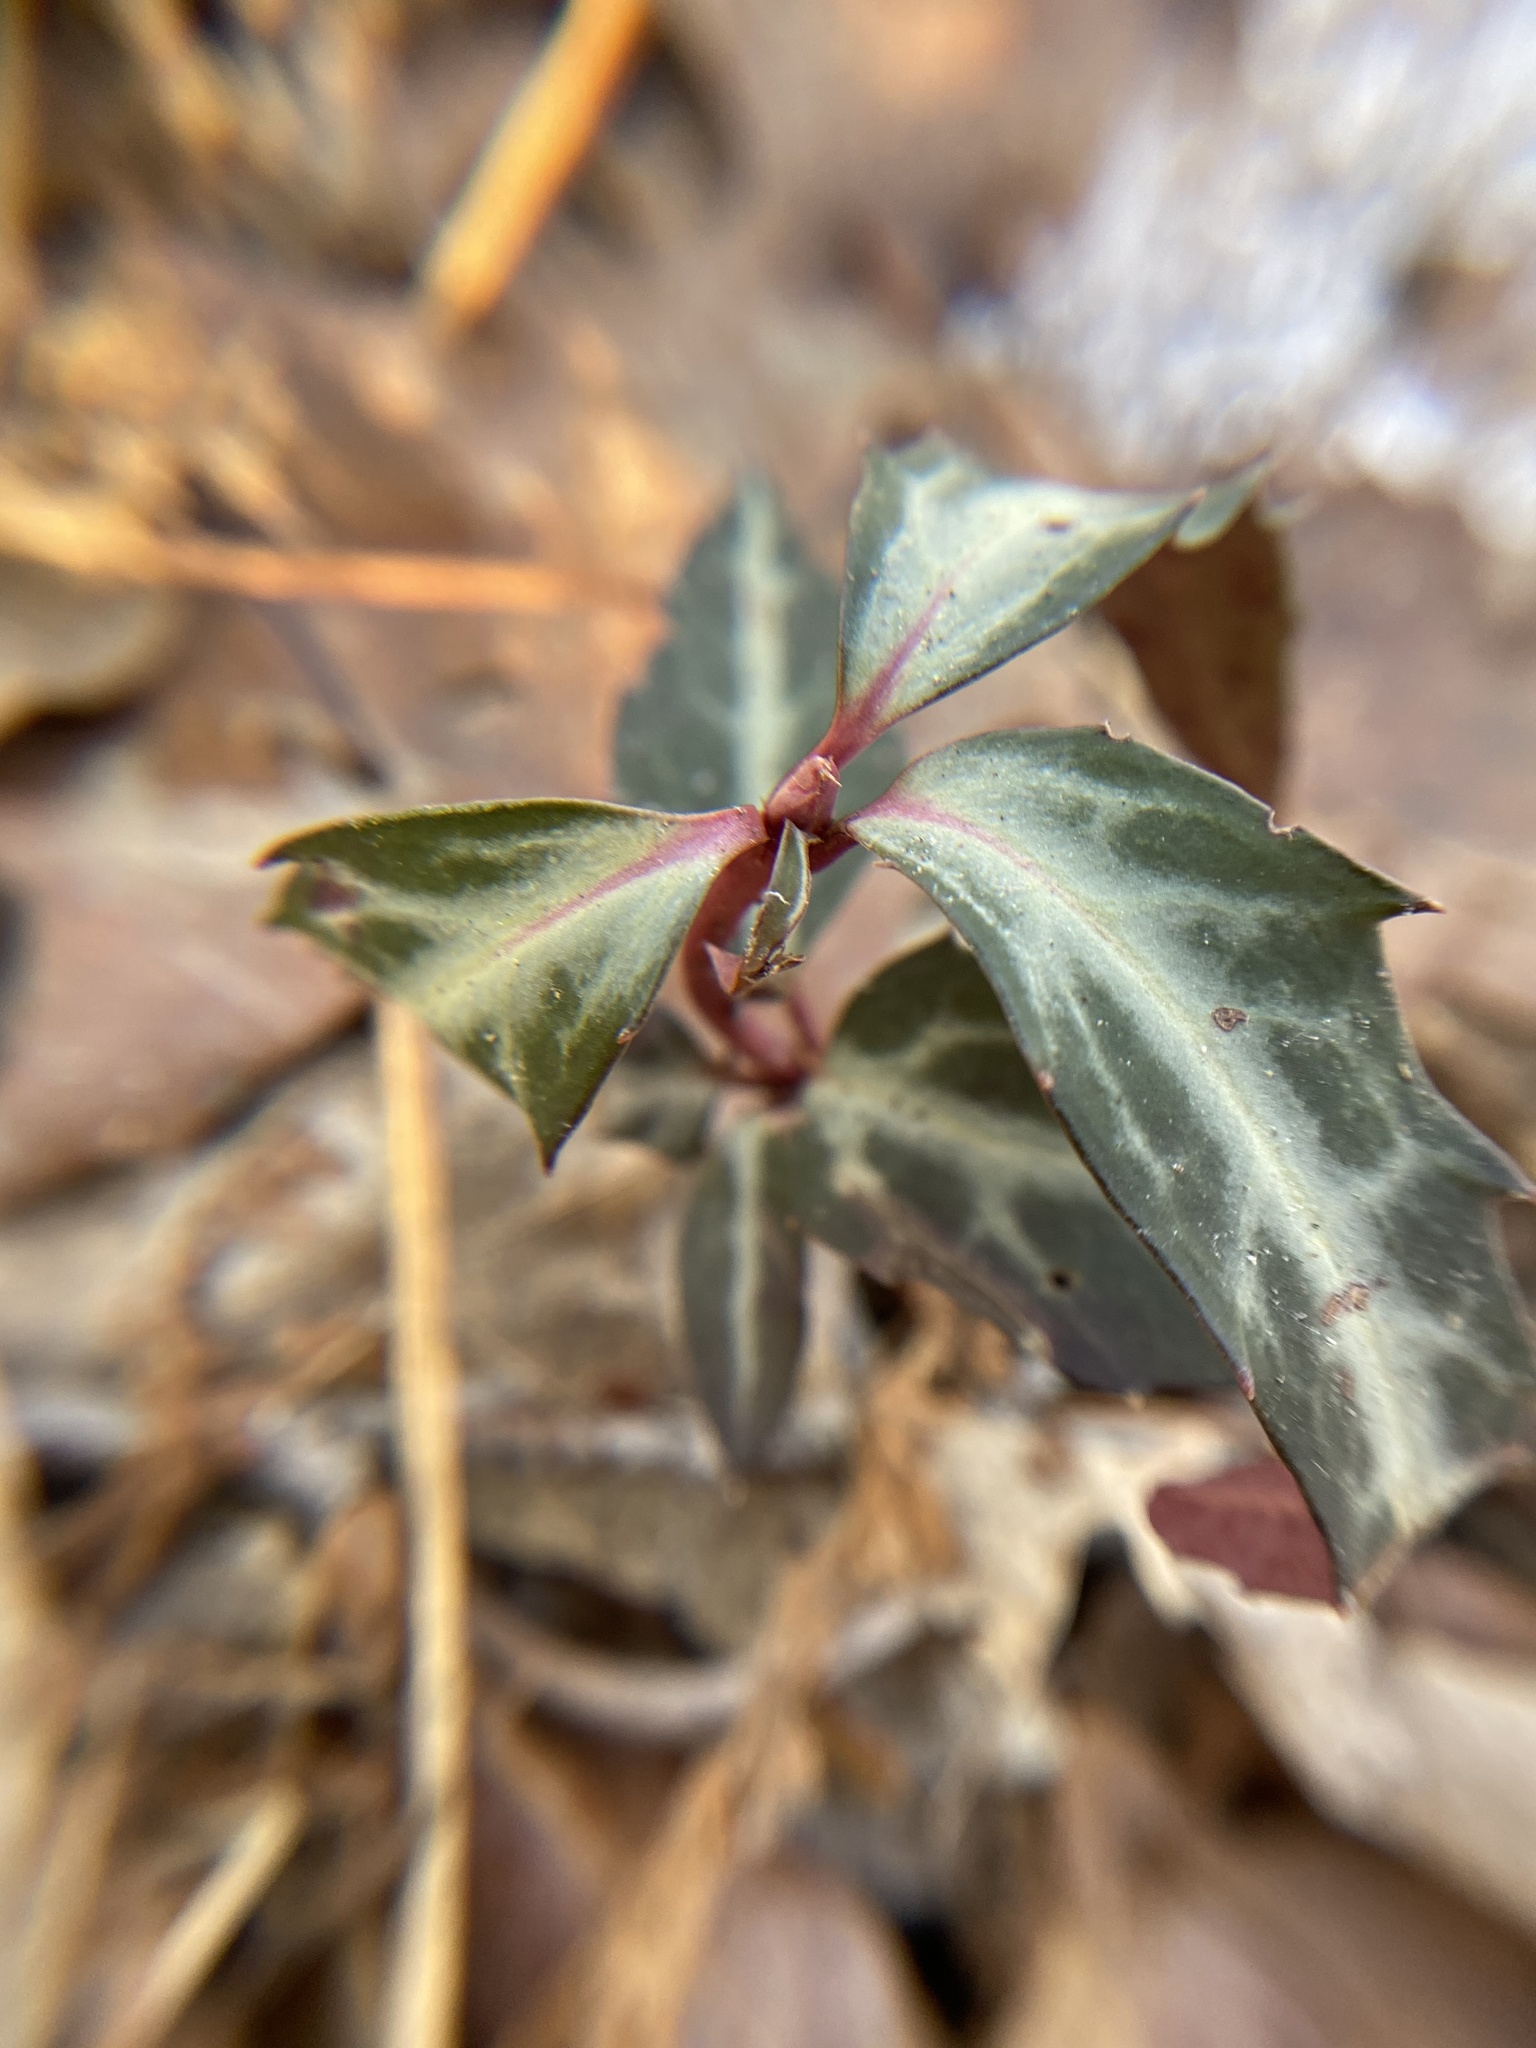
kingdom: Plantae
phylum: Tracheophyta
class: Magnoliopsida
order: Ericales
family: Ericaceae
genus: Chimaphila
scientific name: Chimaphila maculata
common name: Spotted pipsissewa
